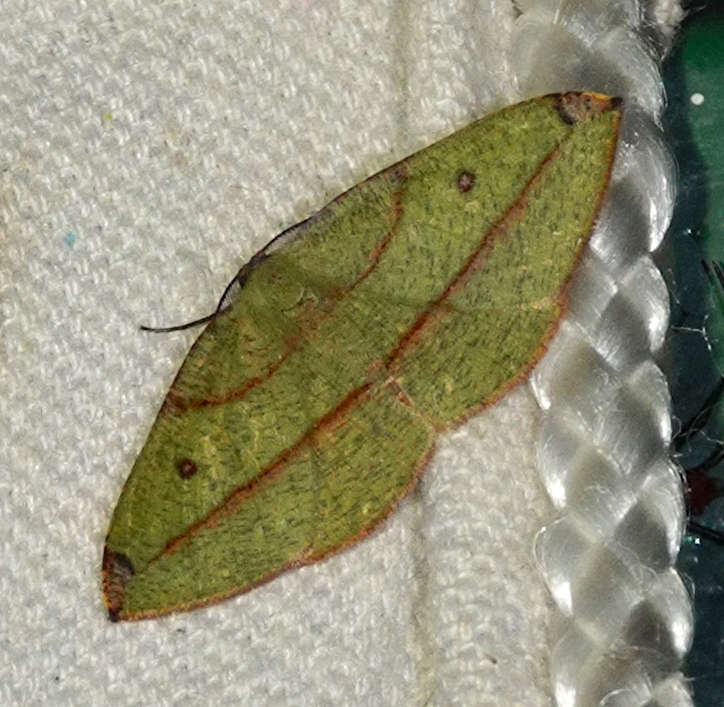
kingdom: Animalia
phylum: Arthropoda
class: Insecta
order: Lepidoptera
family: Geometridae
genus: Hypochrosis
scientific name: Hypochrosis hyadaria
